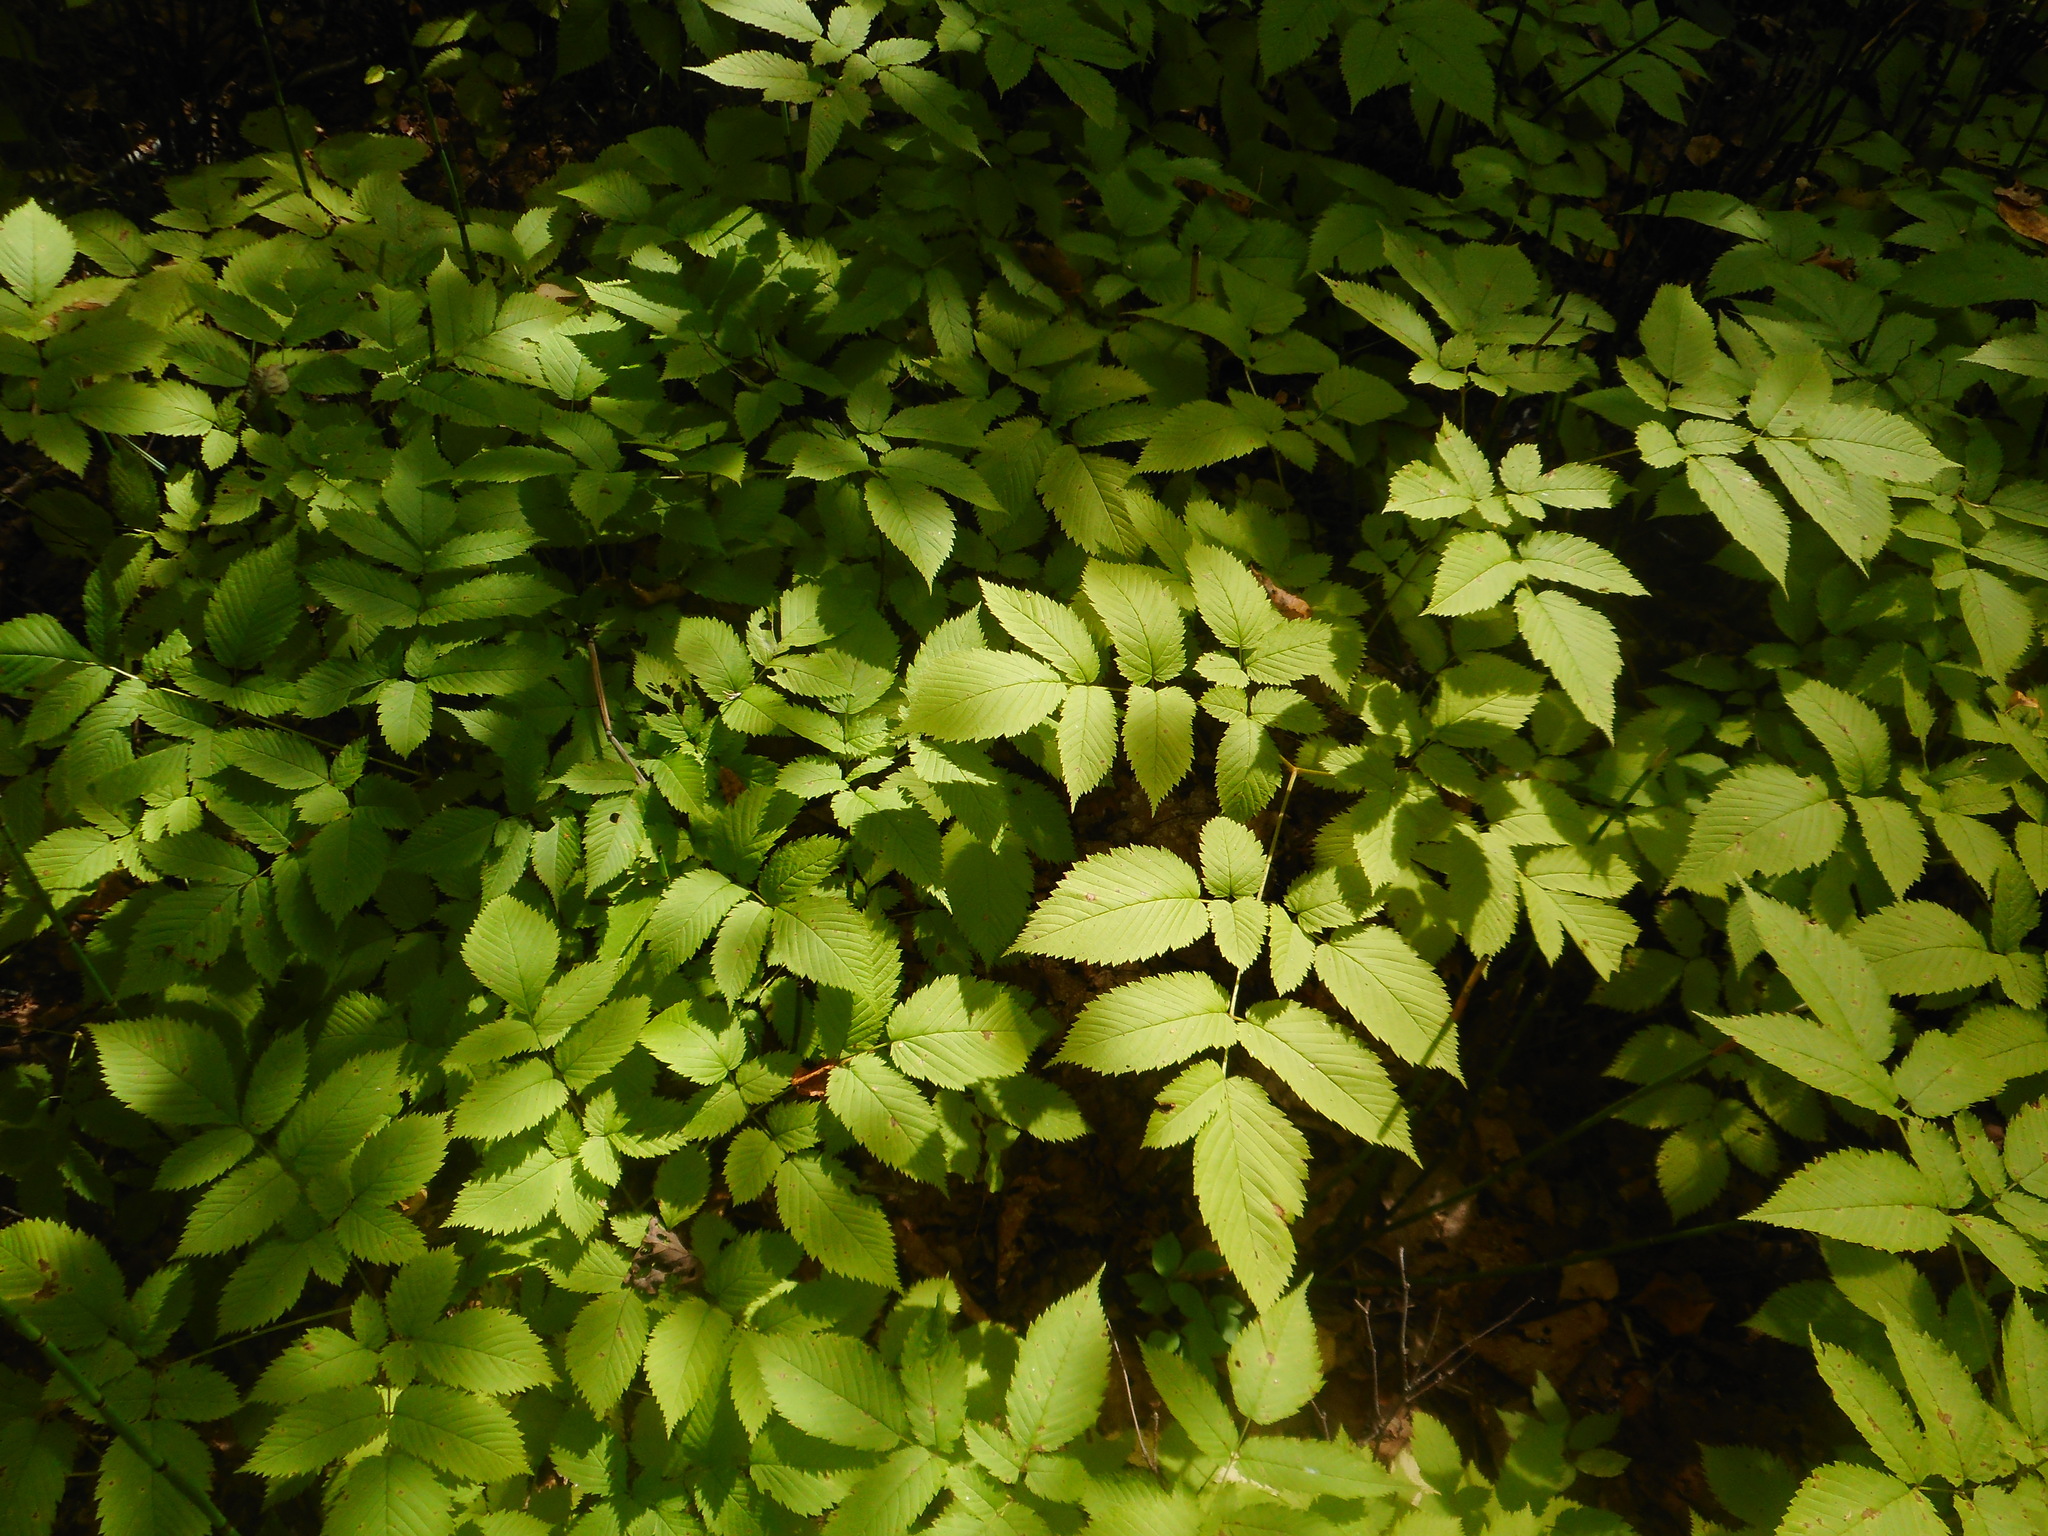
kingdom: Plantae
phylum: Tracheophyta
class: Magnoliopsida
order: Rosales
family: Rosaceae
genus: Aruncus
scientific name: Aruncus dioicus
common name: Buck's-beard
